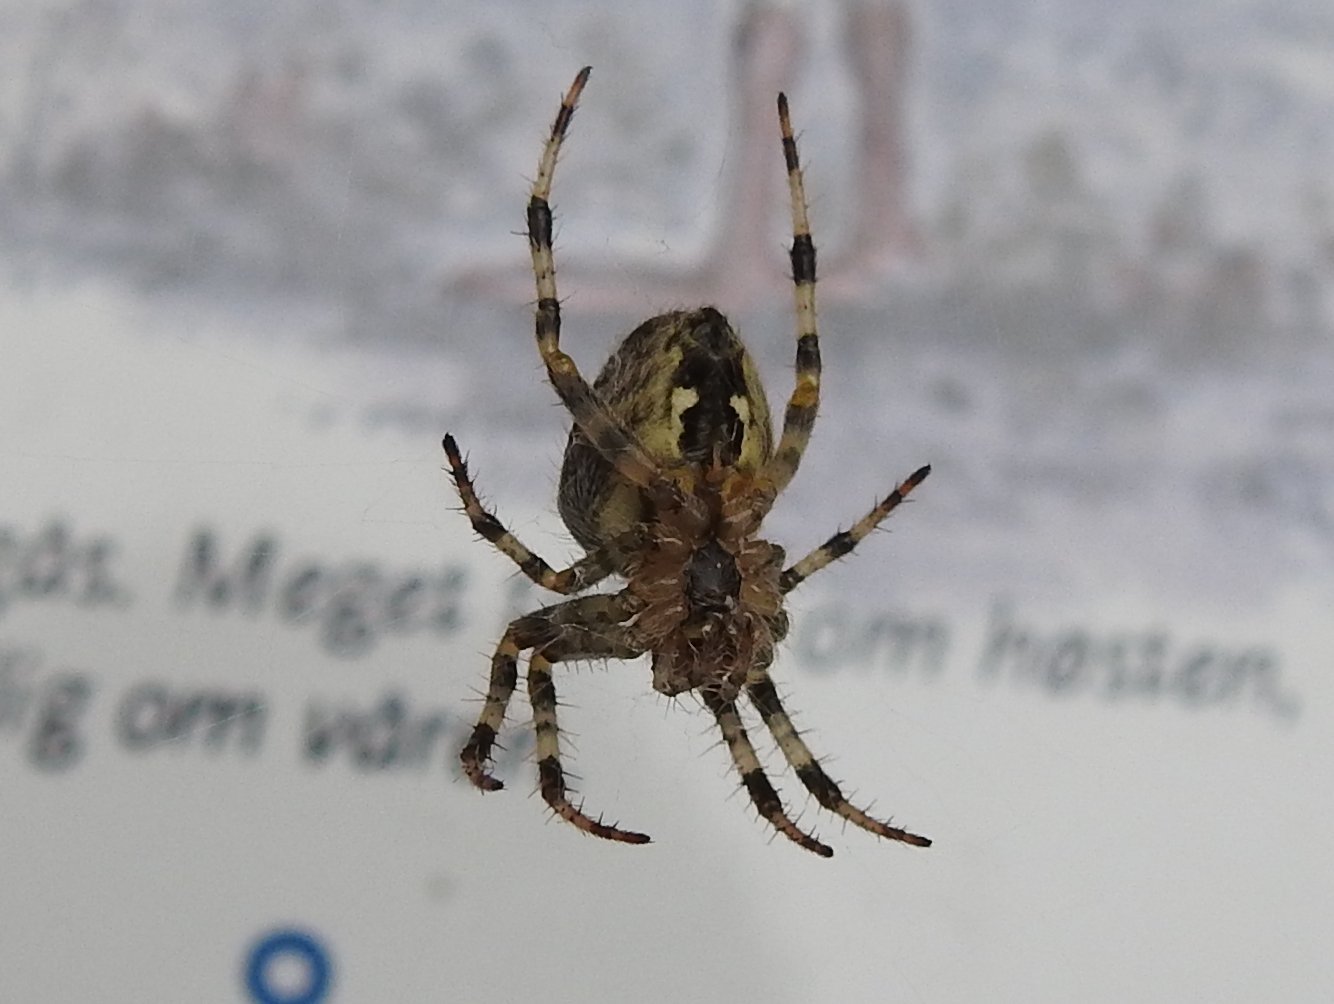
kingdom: Animalia
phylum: Arthropoda
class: Arachnida
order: Araneae
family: Araneidae
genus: Araneus
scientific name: Araneus diadematus
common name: Cross orbweaver
